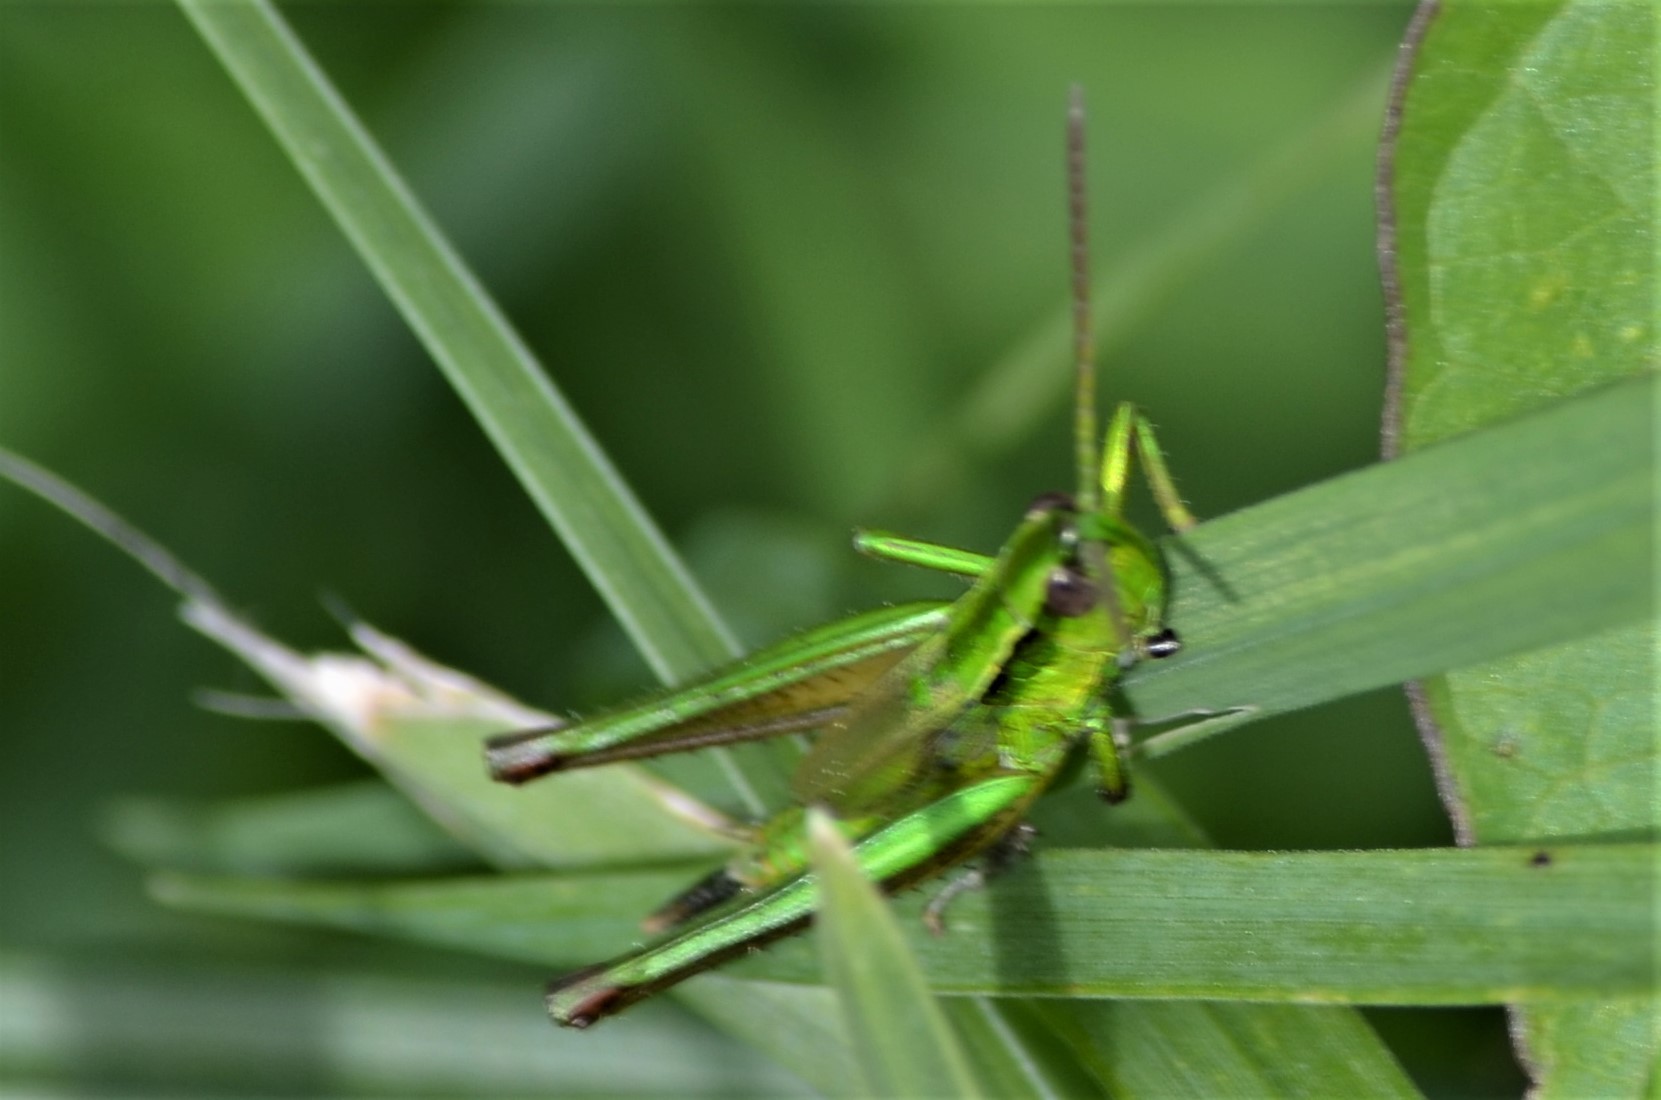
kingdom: Animalia
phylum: Arthropoda
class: Insecta
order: Orthoptera
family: Acrididae
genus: Euthystira
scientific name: Euthystira brachyptera
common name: Small gold grasshopper
